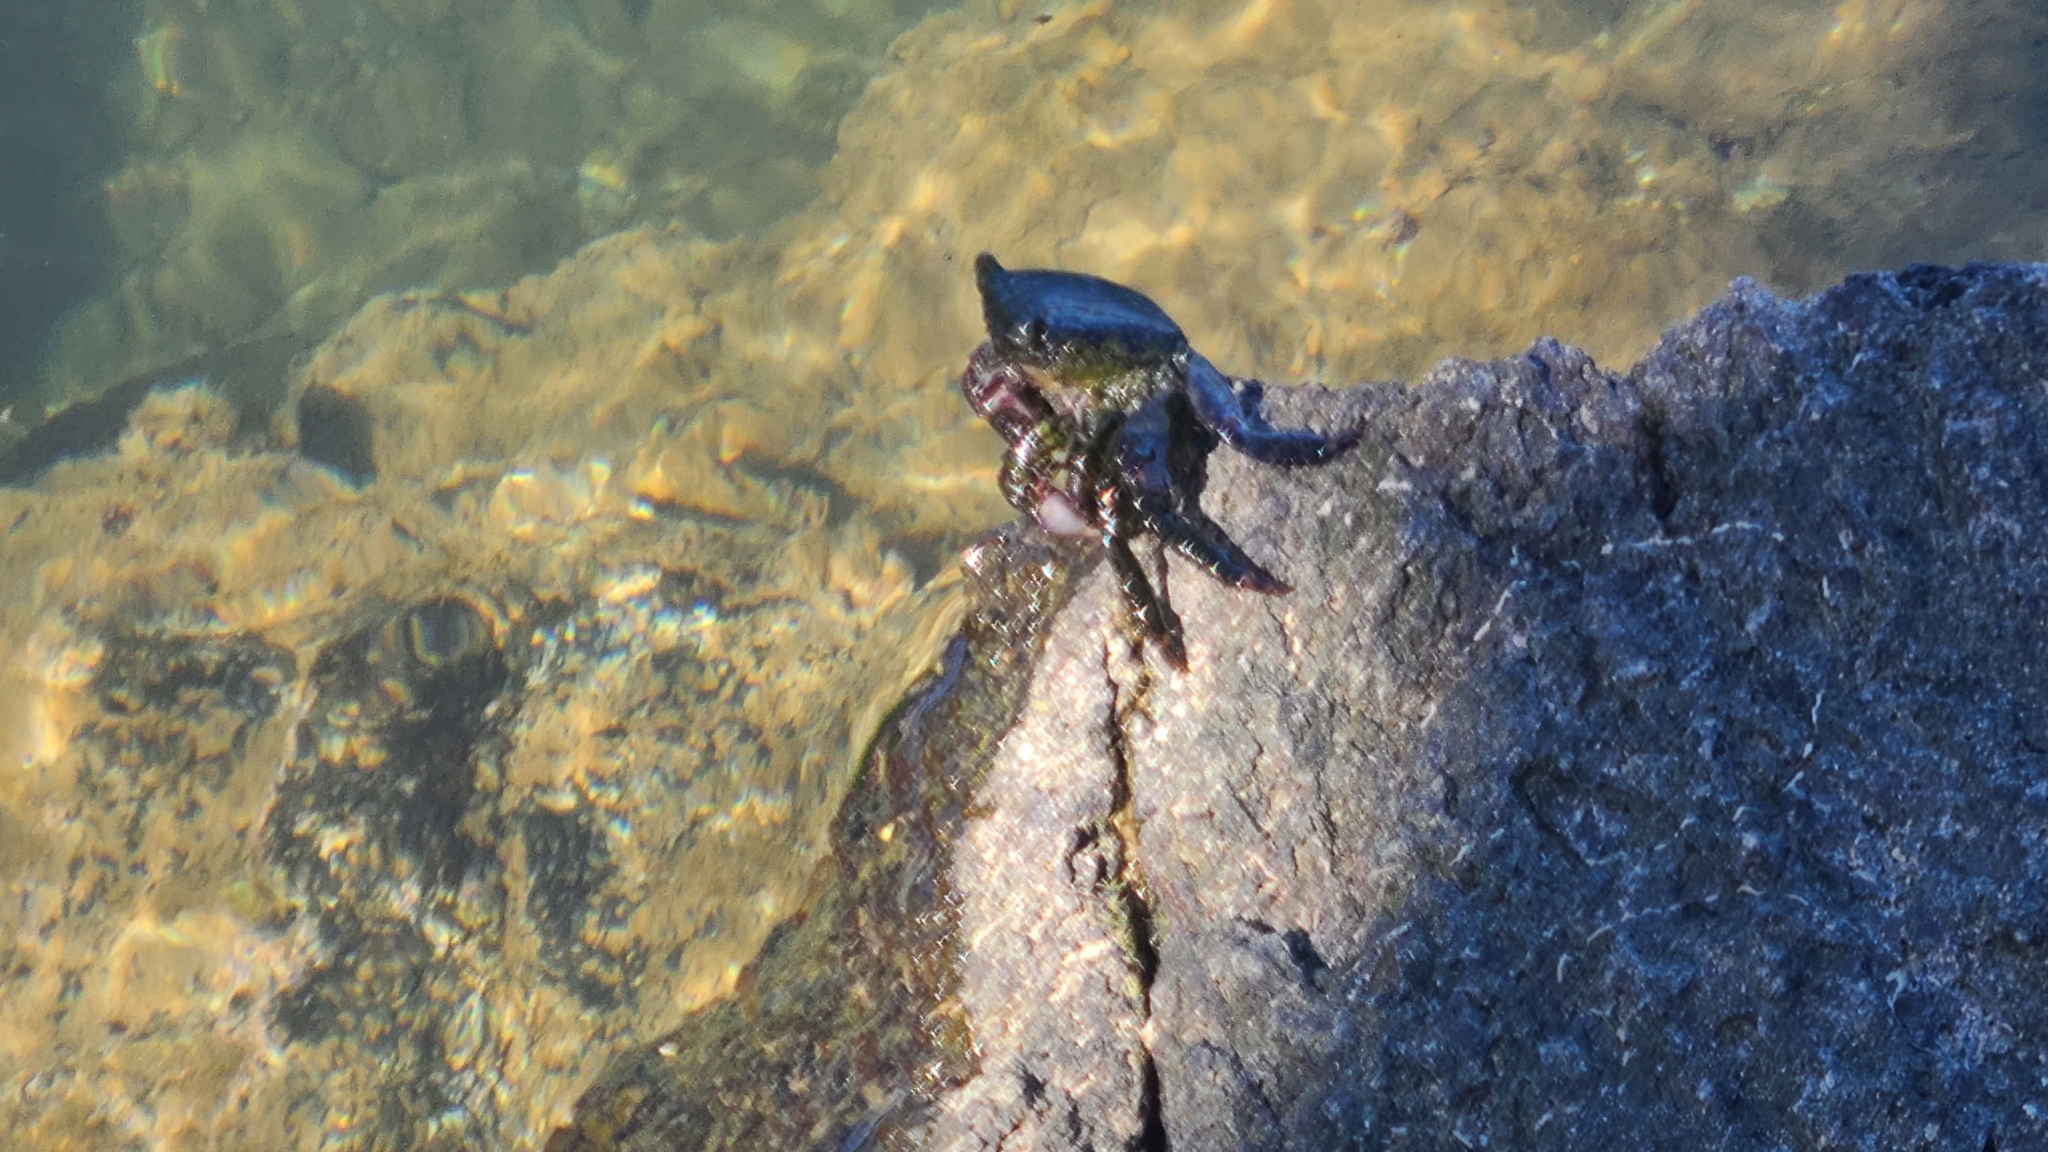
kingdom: Animalia
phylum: Arthropoda
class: Malacostraca
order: Decapoda
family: Grapsidae
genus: Metopograpsus
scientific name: Metopograpsus thukuhar
